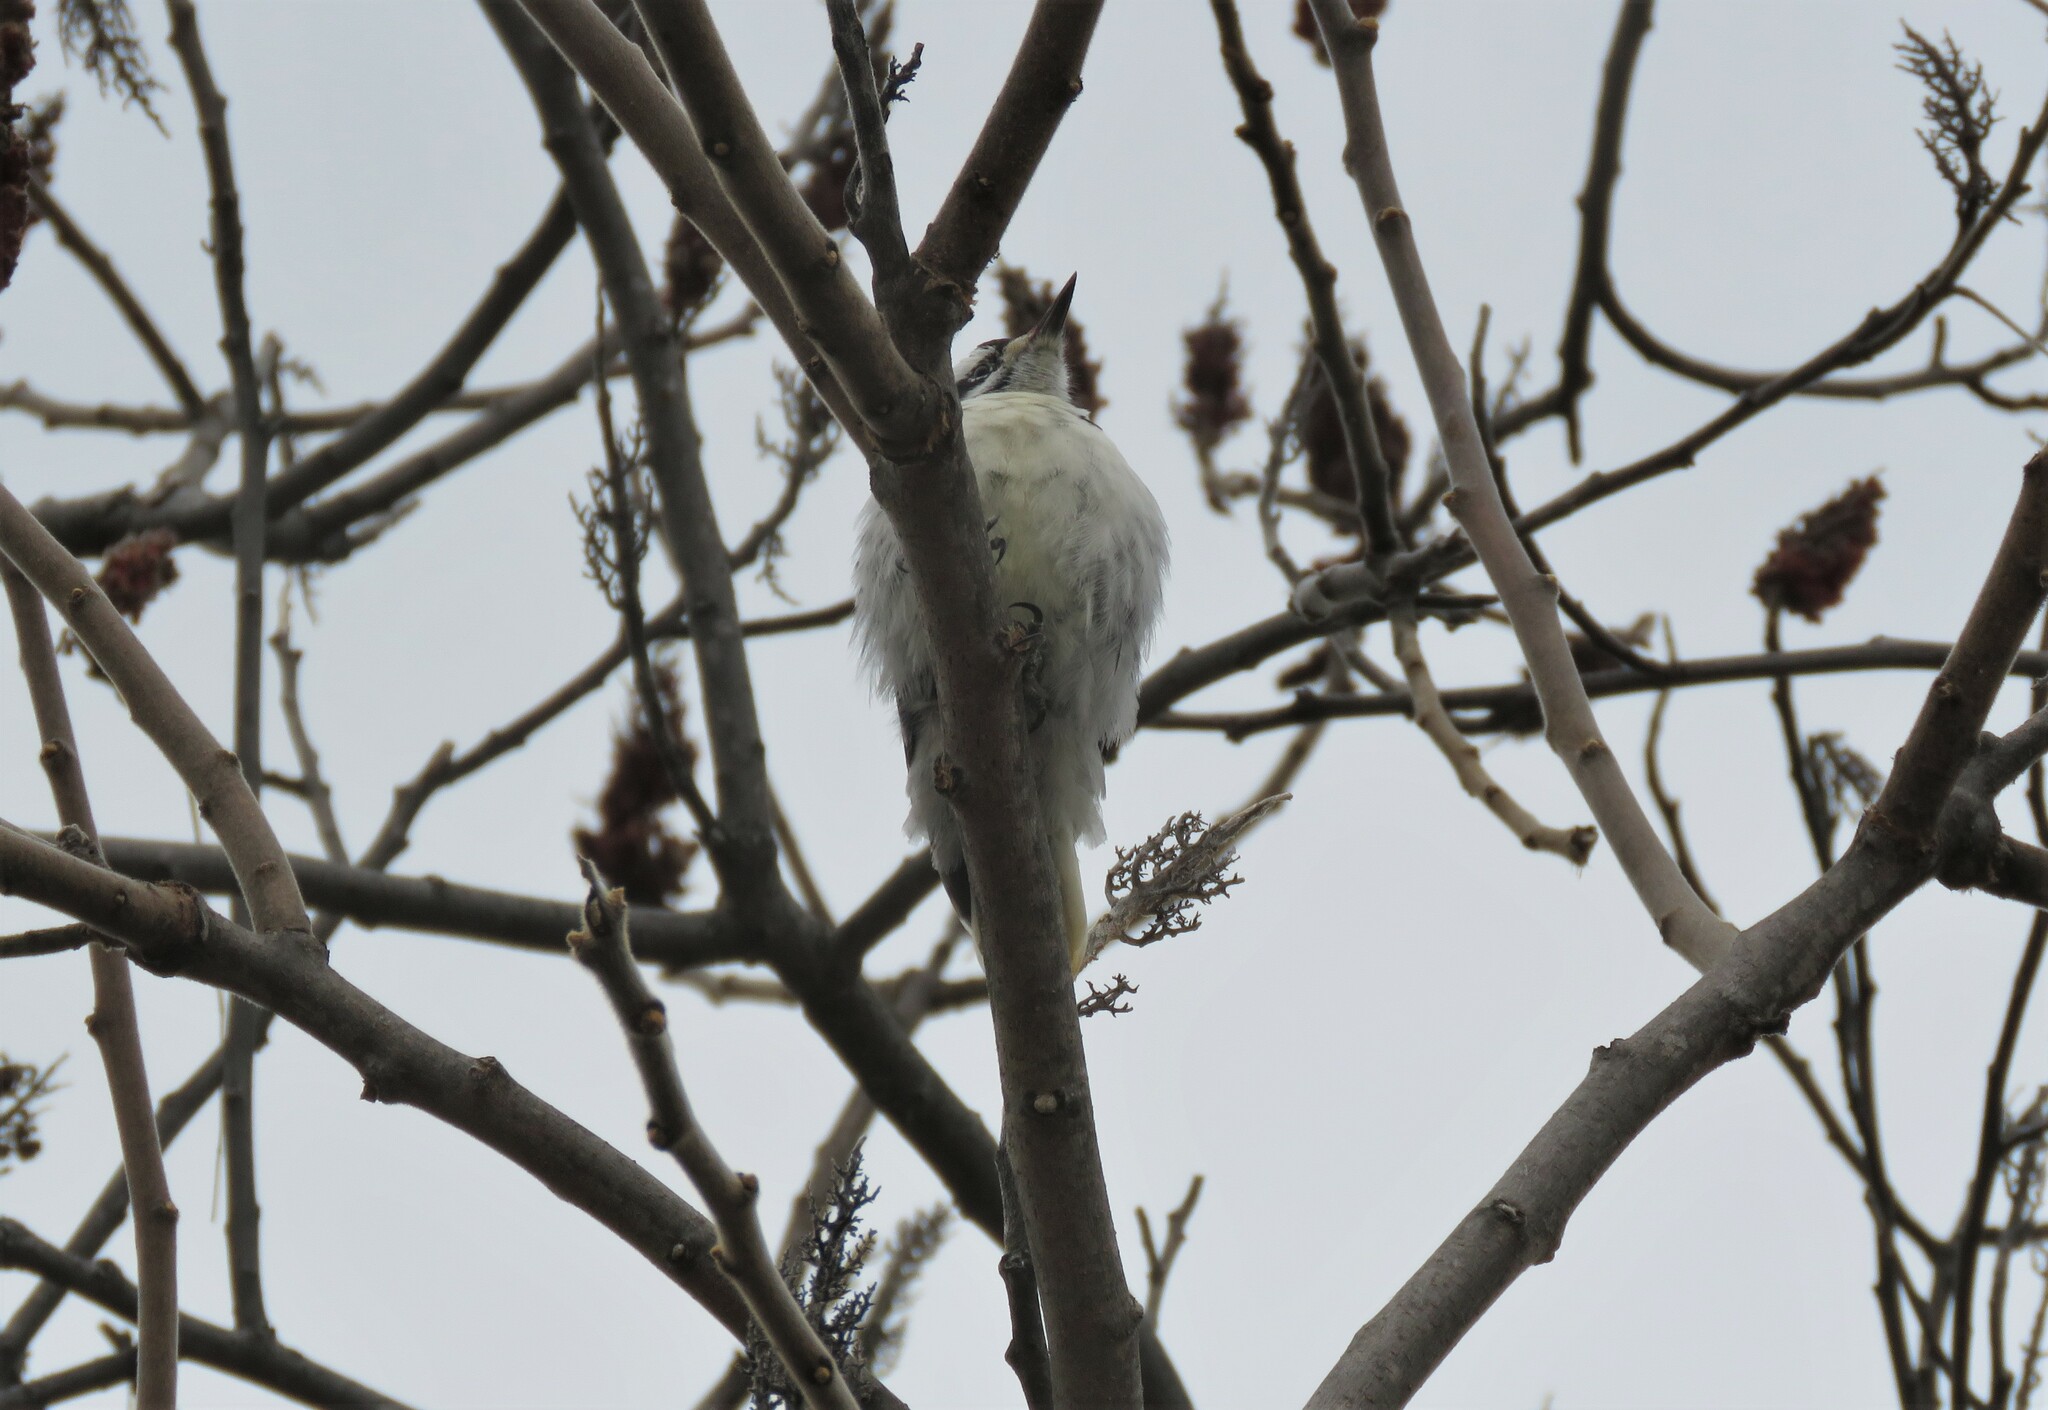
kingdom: Animalia
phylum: Chordata
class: Aves
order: Piciformes
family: Picidae
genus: Leuconotopicus
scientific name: Leuconotopicus villosus
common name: Hairy woodpecker
